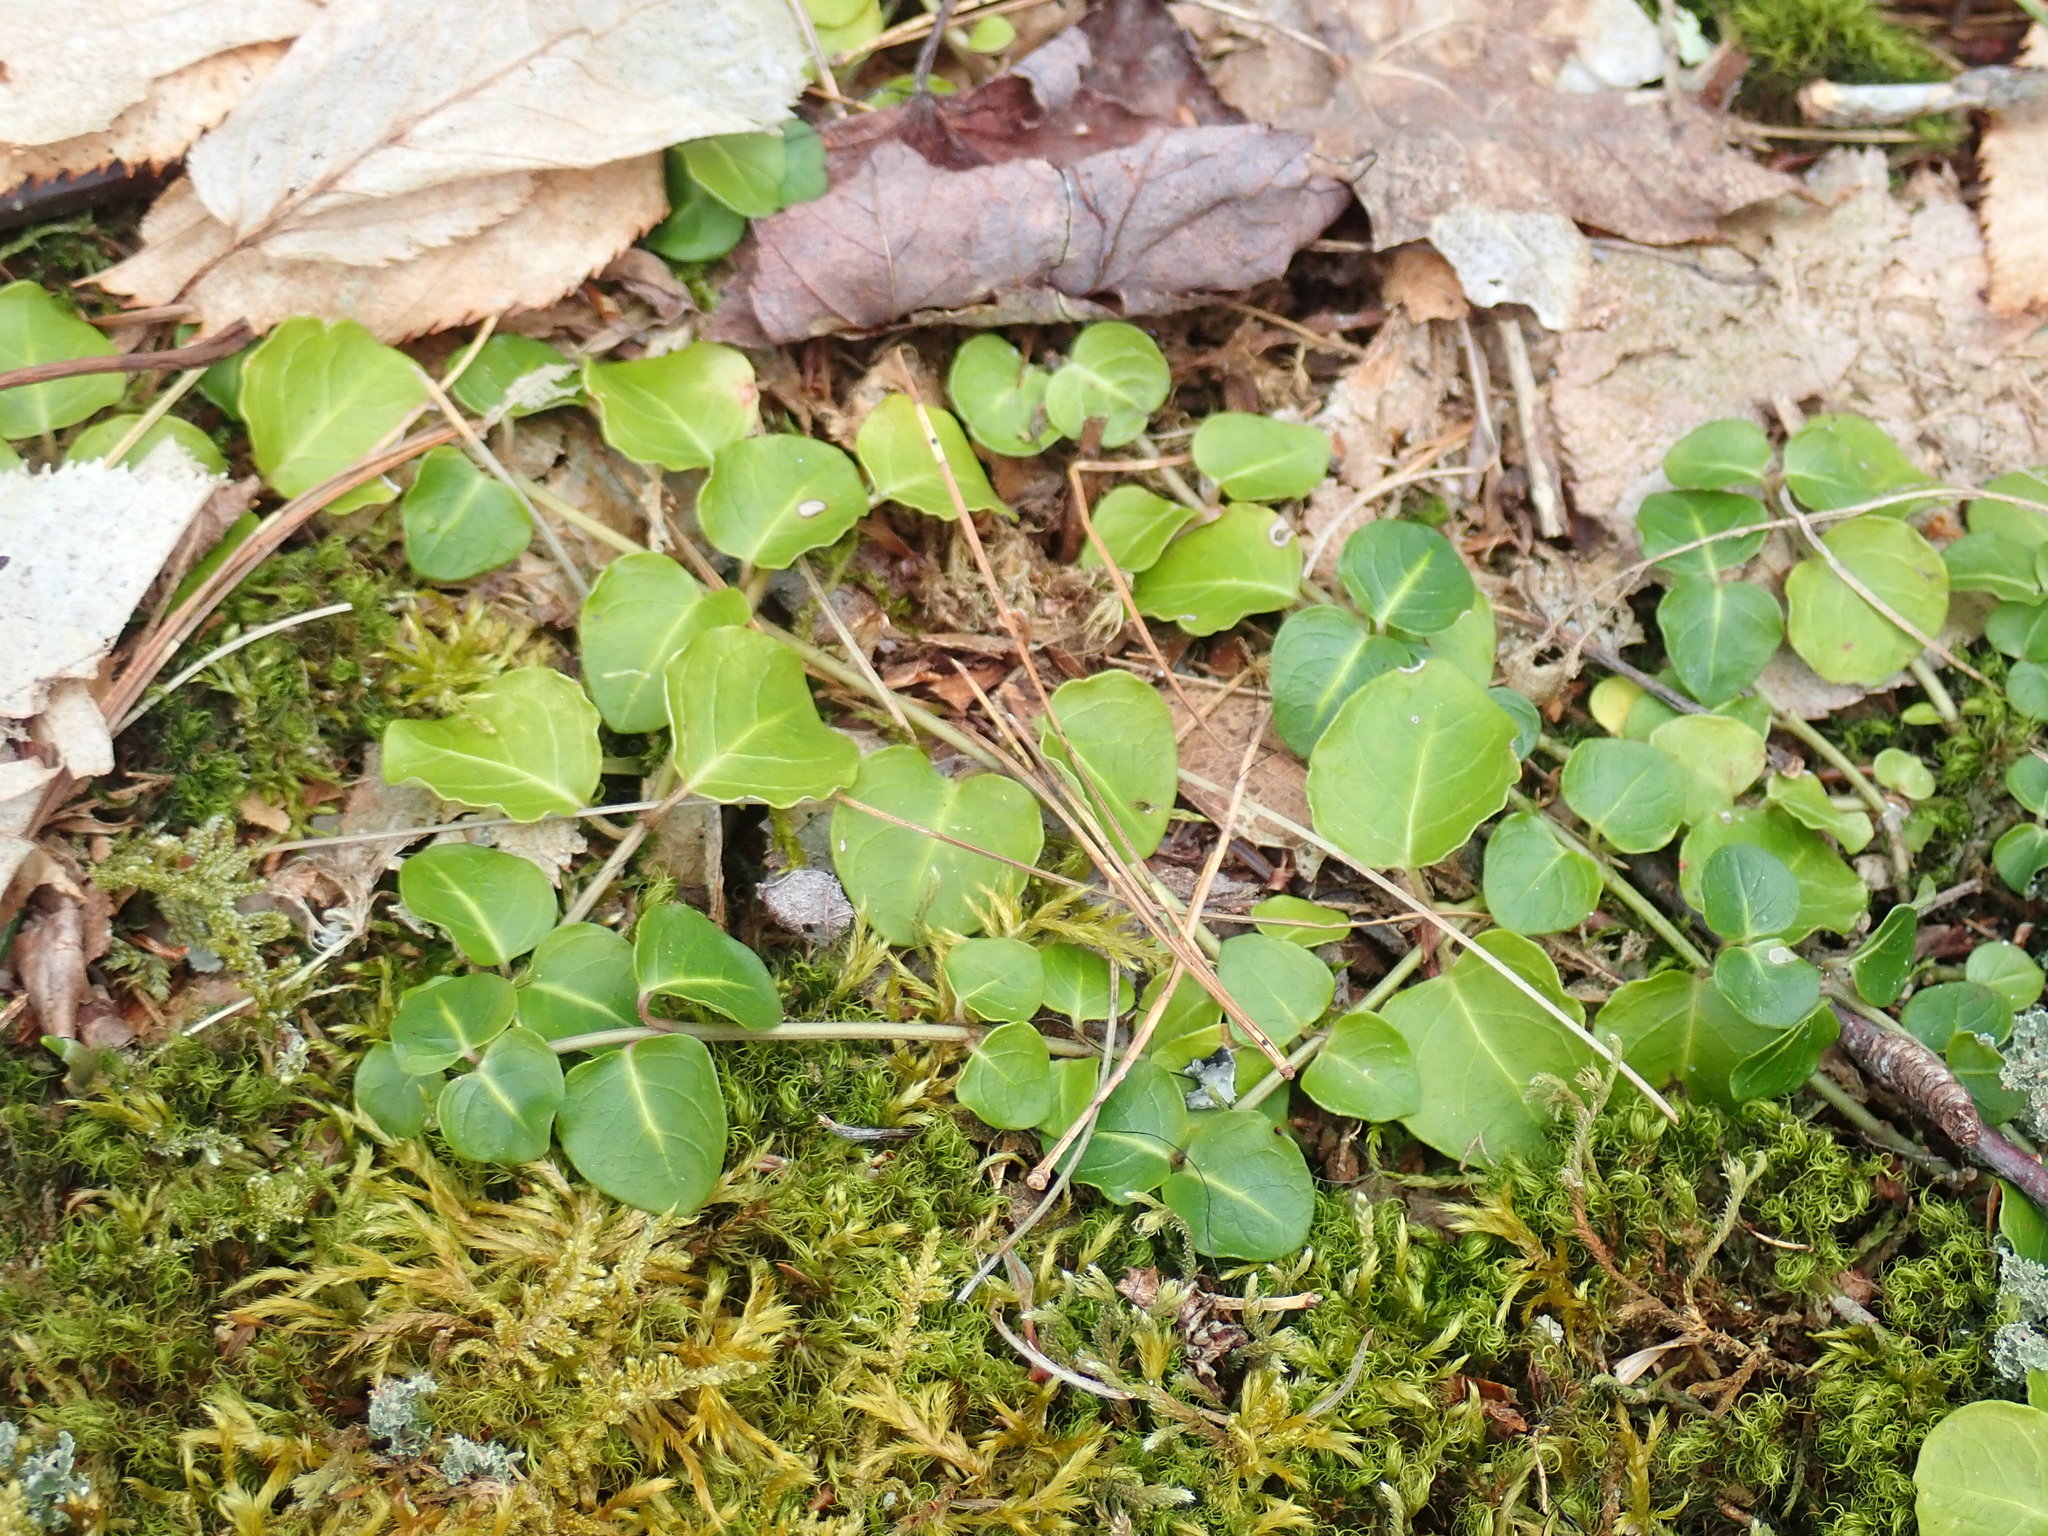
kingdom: Plantae
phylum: Tracheophyta
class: Magnoliopsida
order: Gentianales
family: Rubiaceae
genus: Mitchella
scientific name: Mitchella repens
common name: Partridge-berry
